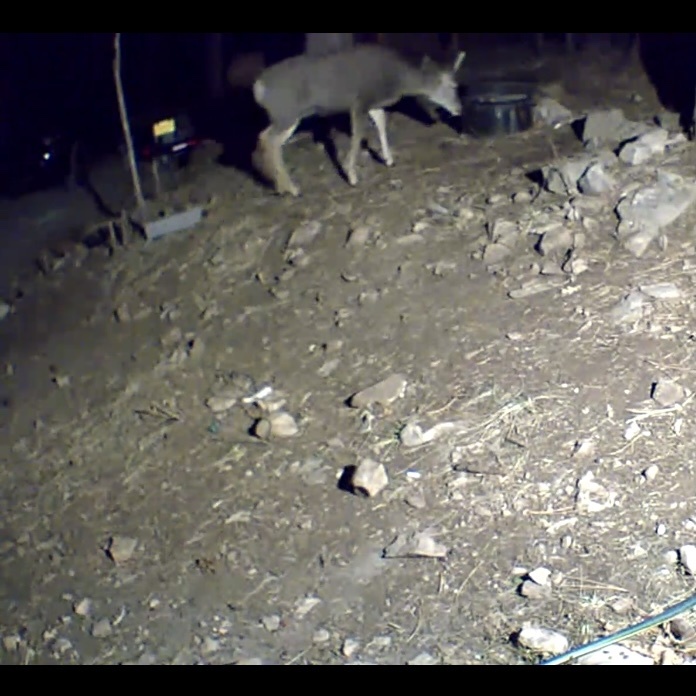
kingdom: Animalia
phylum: Chordata
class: Mammalia
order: Artiodactyla
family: Cervidae
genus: Odocoileus
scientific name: Odocoileus hemionus
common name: Mule deer
